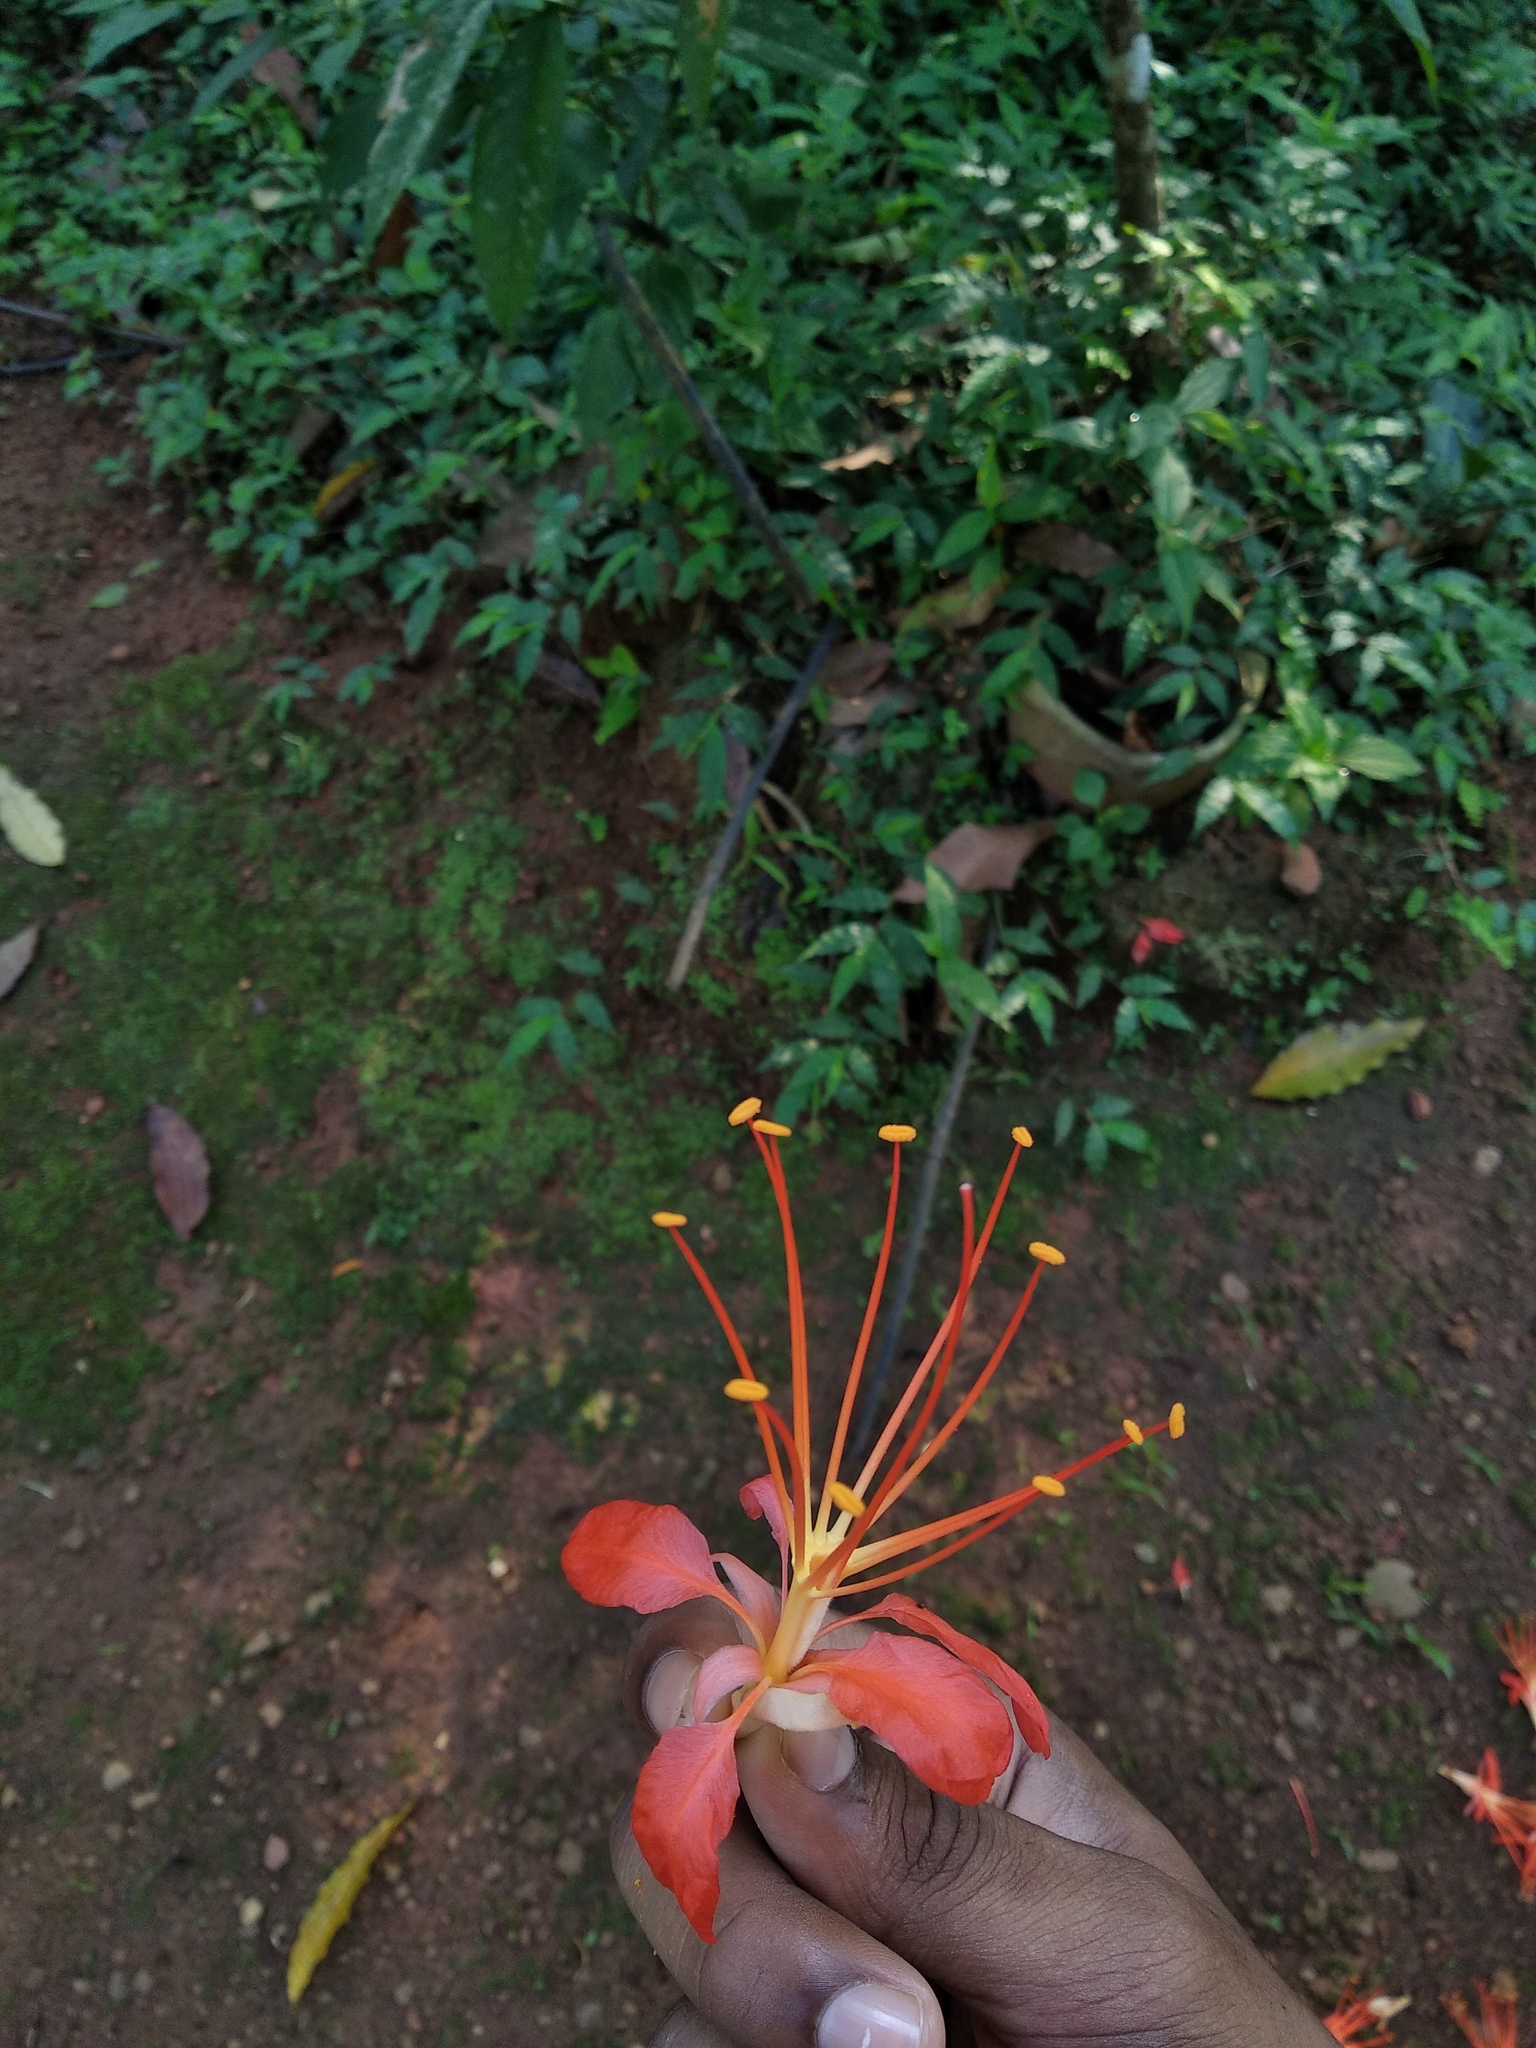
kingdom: Plantae
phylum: Tracheophyta
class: Magnoliopsida
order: Fabales
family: Fabaceae
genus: Delonix
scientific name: Delonix regia
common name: Royal poinciana
